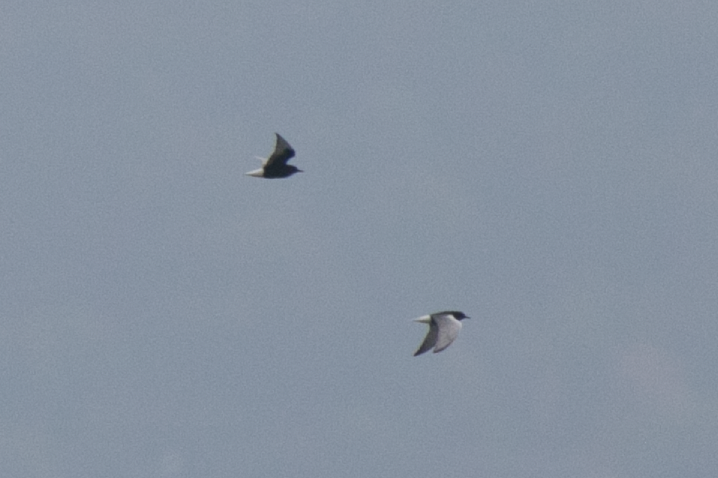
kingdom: Animalia
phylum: Chordata
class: Aves
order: Charadriiformes
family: Laridae
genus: Chlidonias
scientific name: Chlidonias leucopterus
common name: White-winged tern
